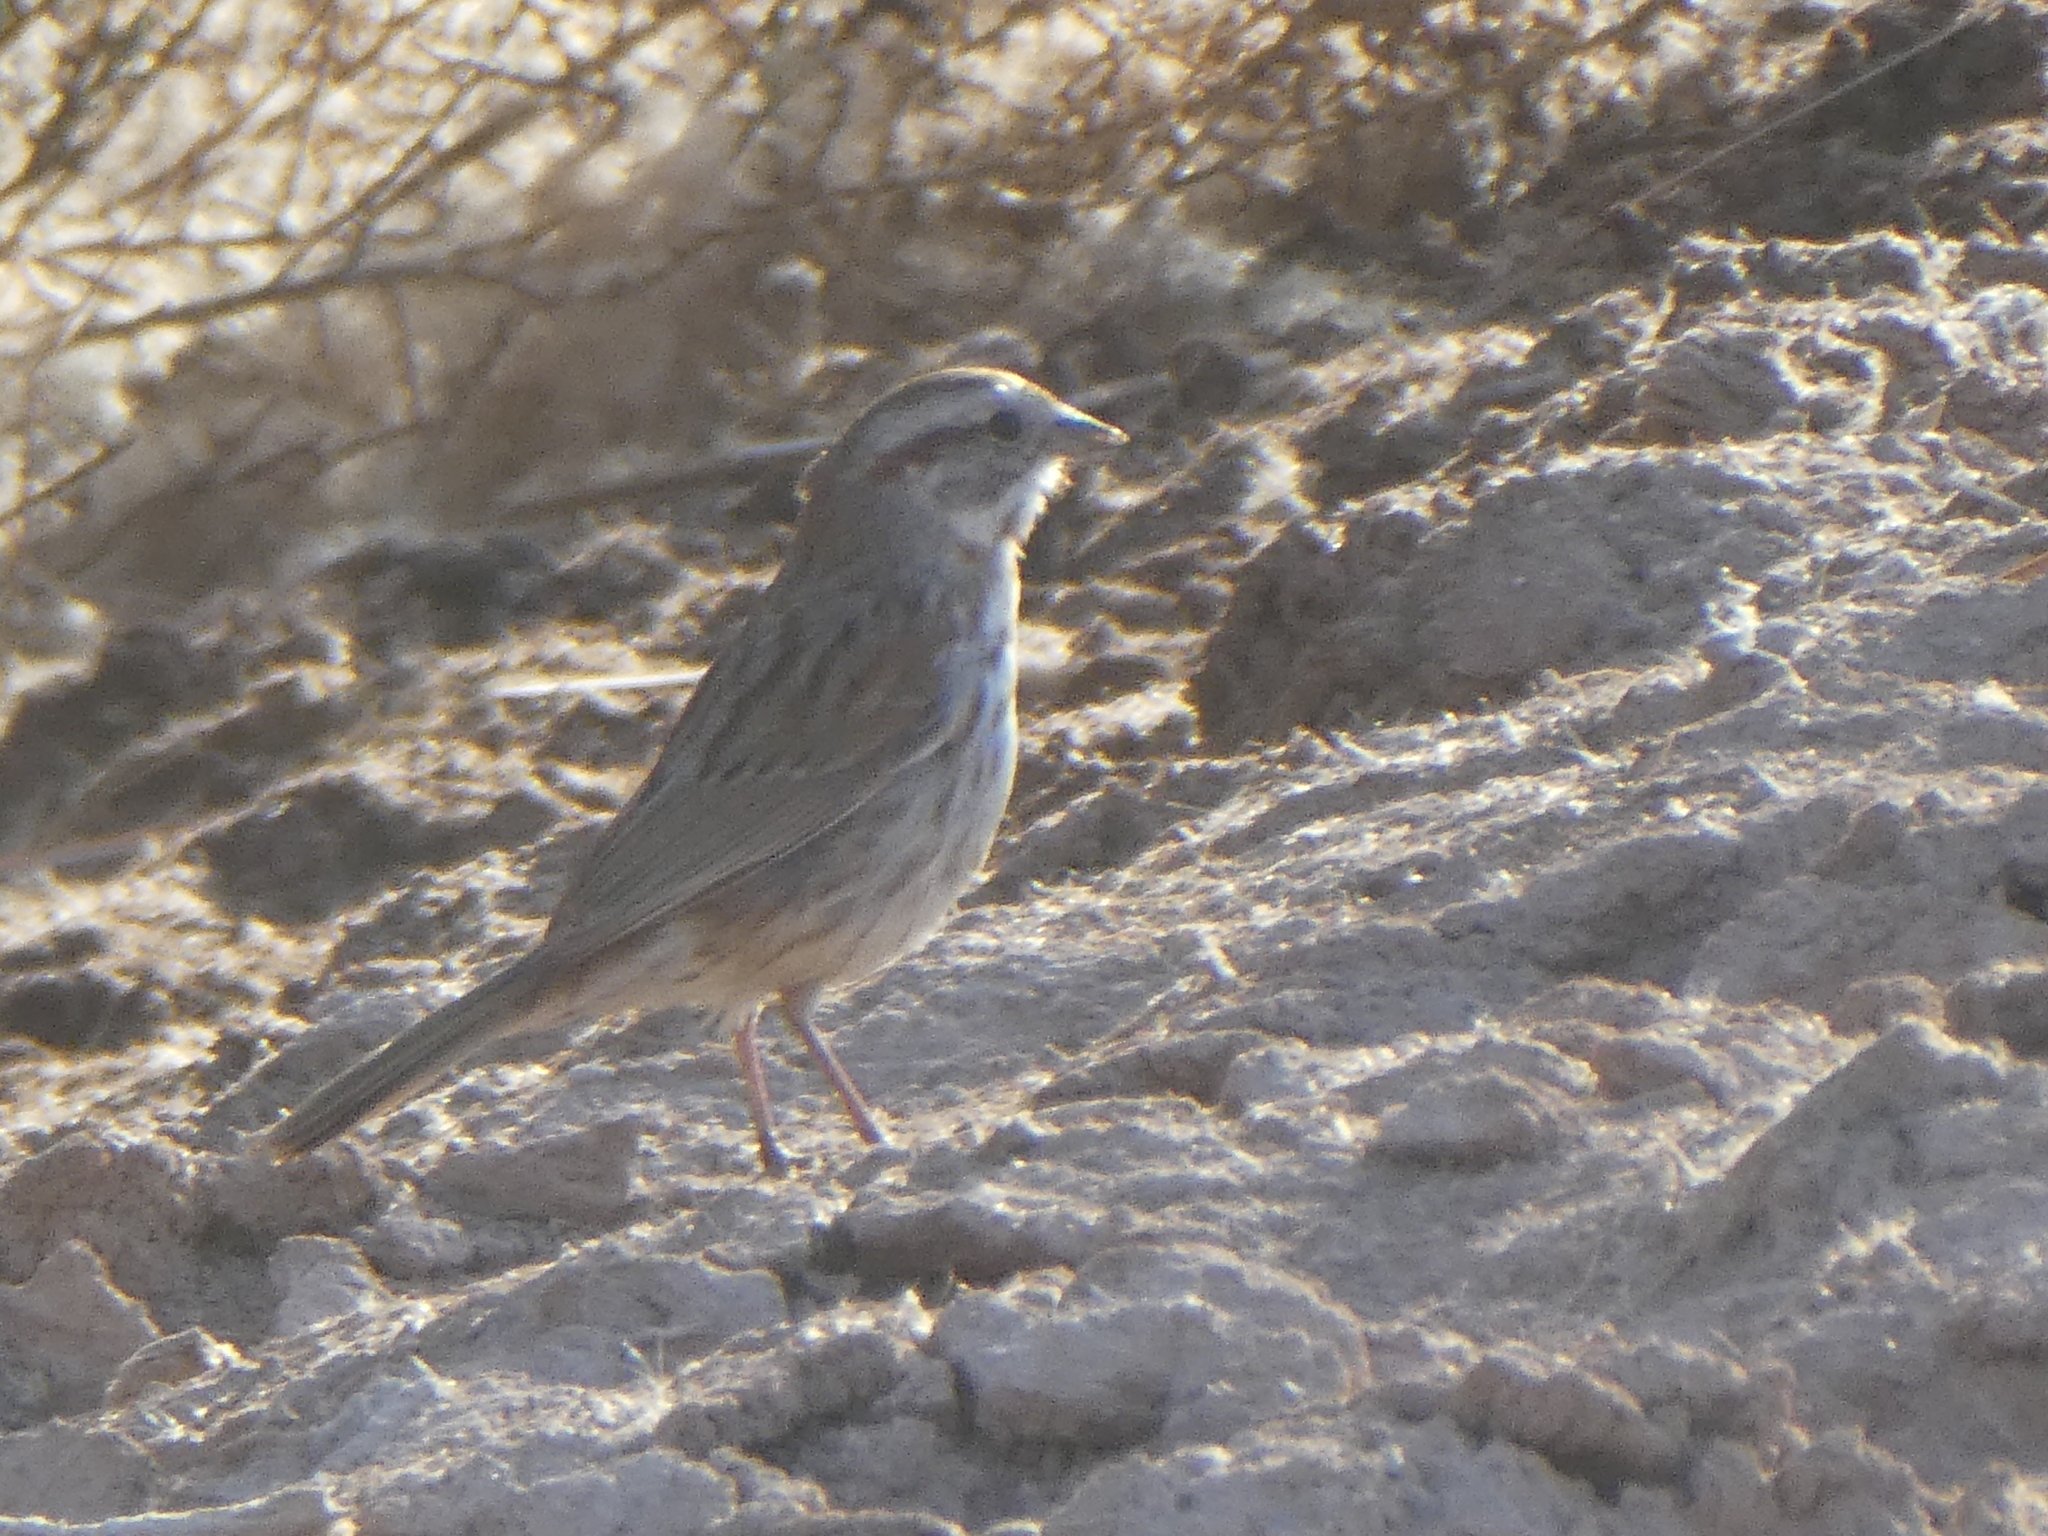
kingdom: Animalia
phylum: Chordata
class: Aves
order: Passeriformes
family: Passerellidae
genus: Melospiza
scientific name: Melospiza melodia
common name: Song sparrow
